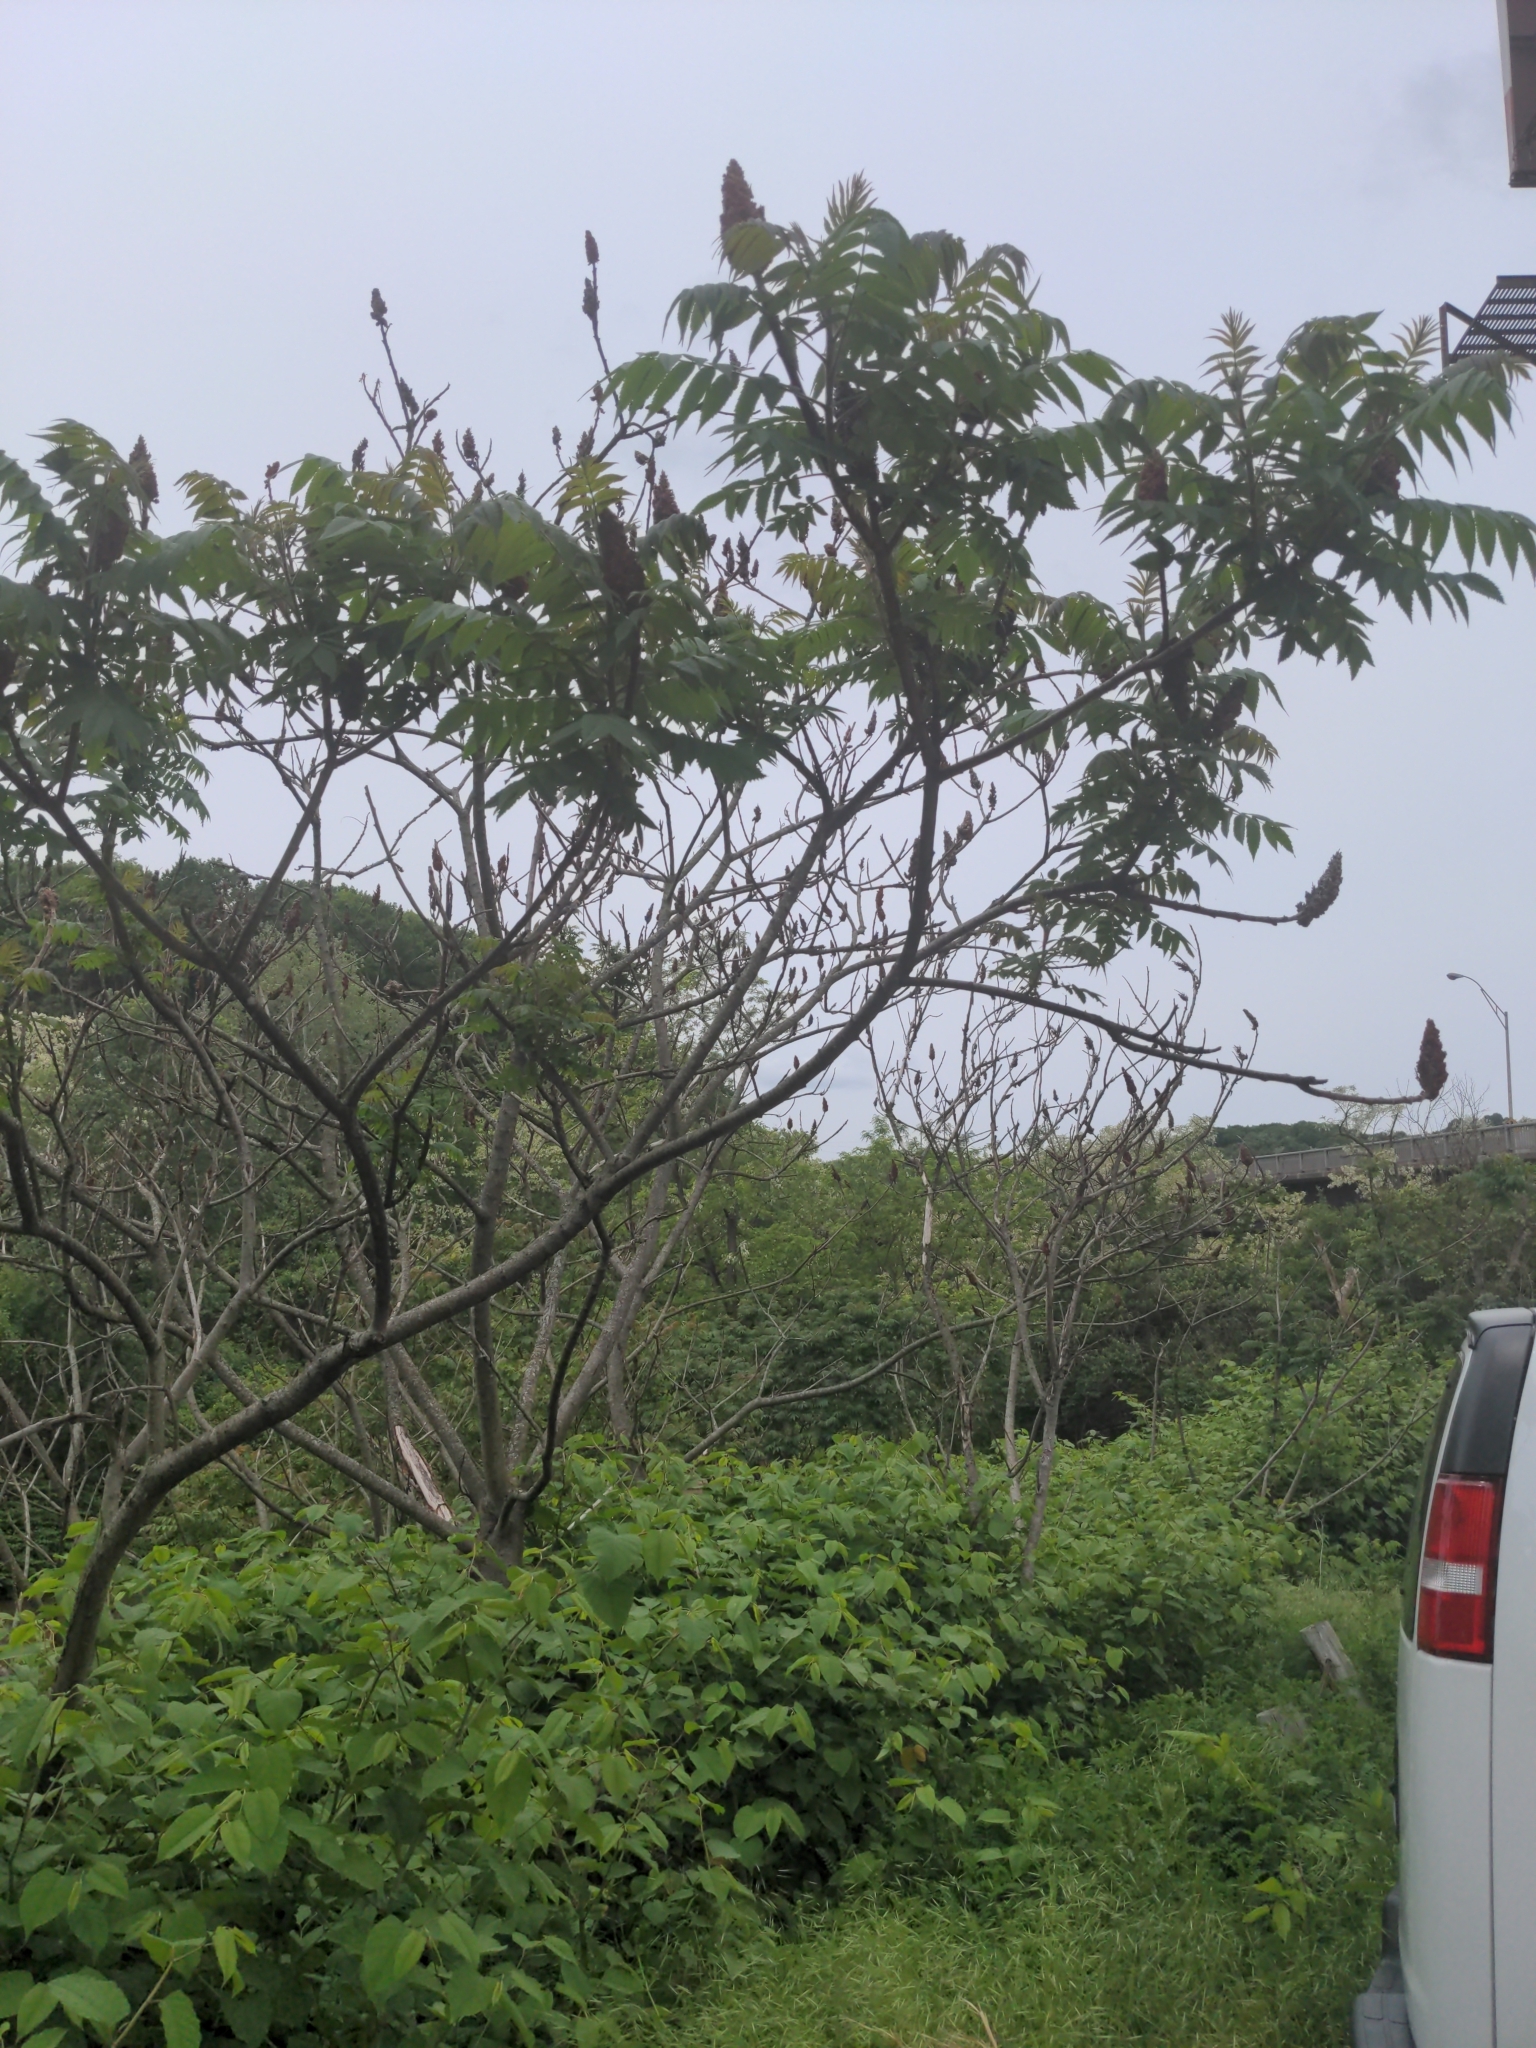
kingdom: Plantae
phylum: Tracheophyta
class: Magnoliopsida
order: Sapindales
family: Anacardiaceae
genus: Rhus
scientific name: Rhus typhina
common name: Staghorn sumac
